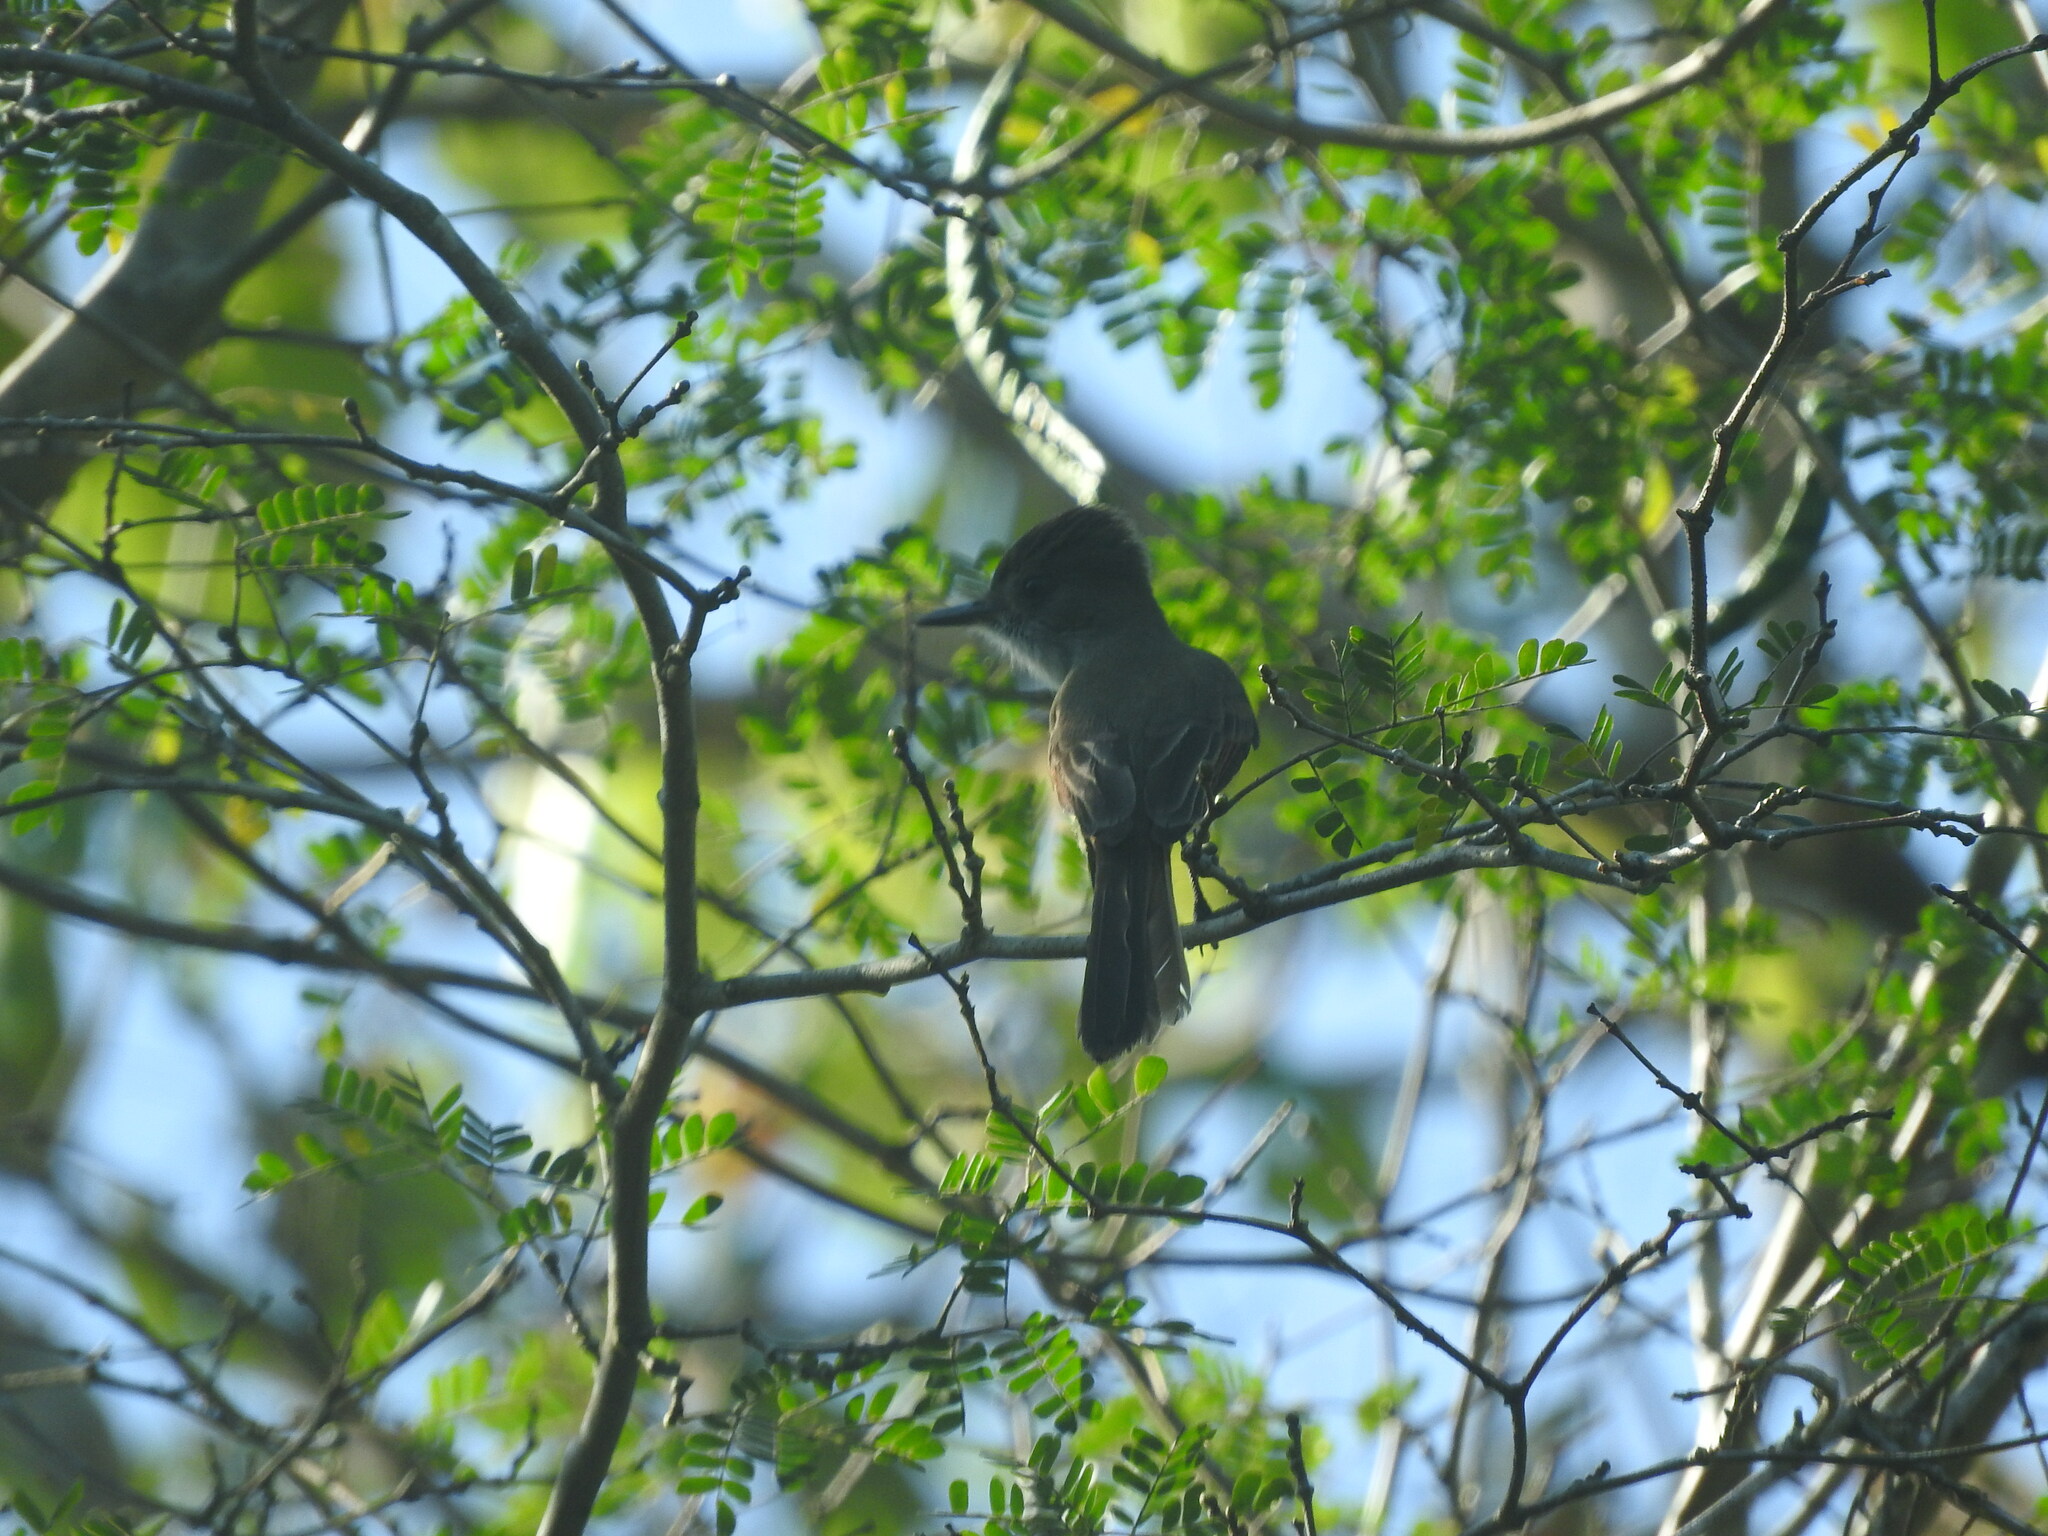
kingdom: Animalia
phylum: Chordata
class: Aves
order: Passeriformes
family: Tyrannidae
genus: Myiarchus
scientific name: Myiarchus tyrannulus
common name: Brown-crested flycatcher
